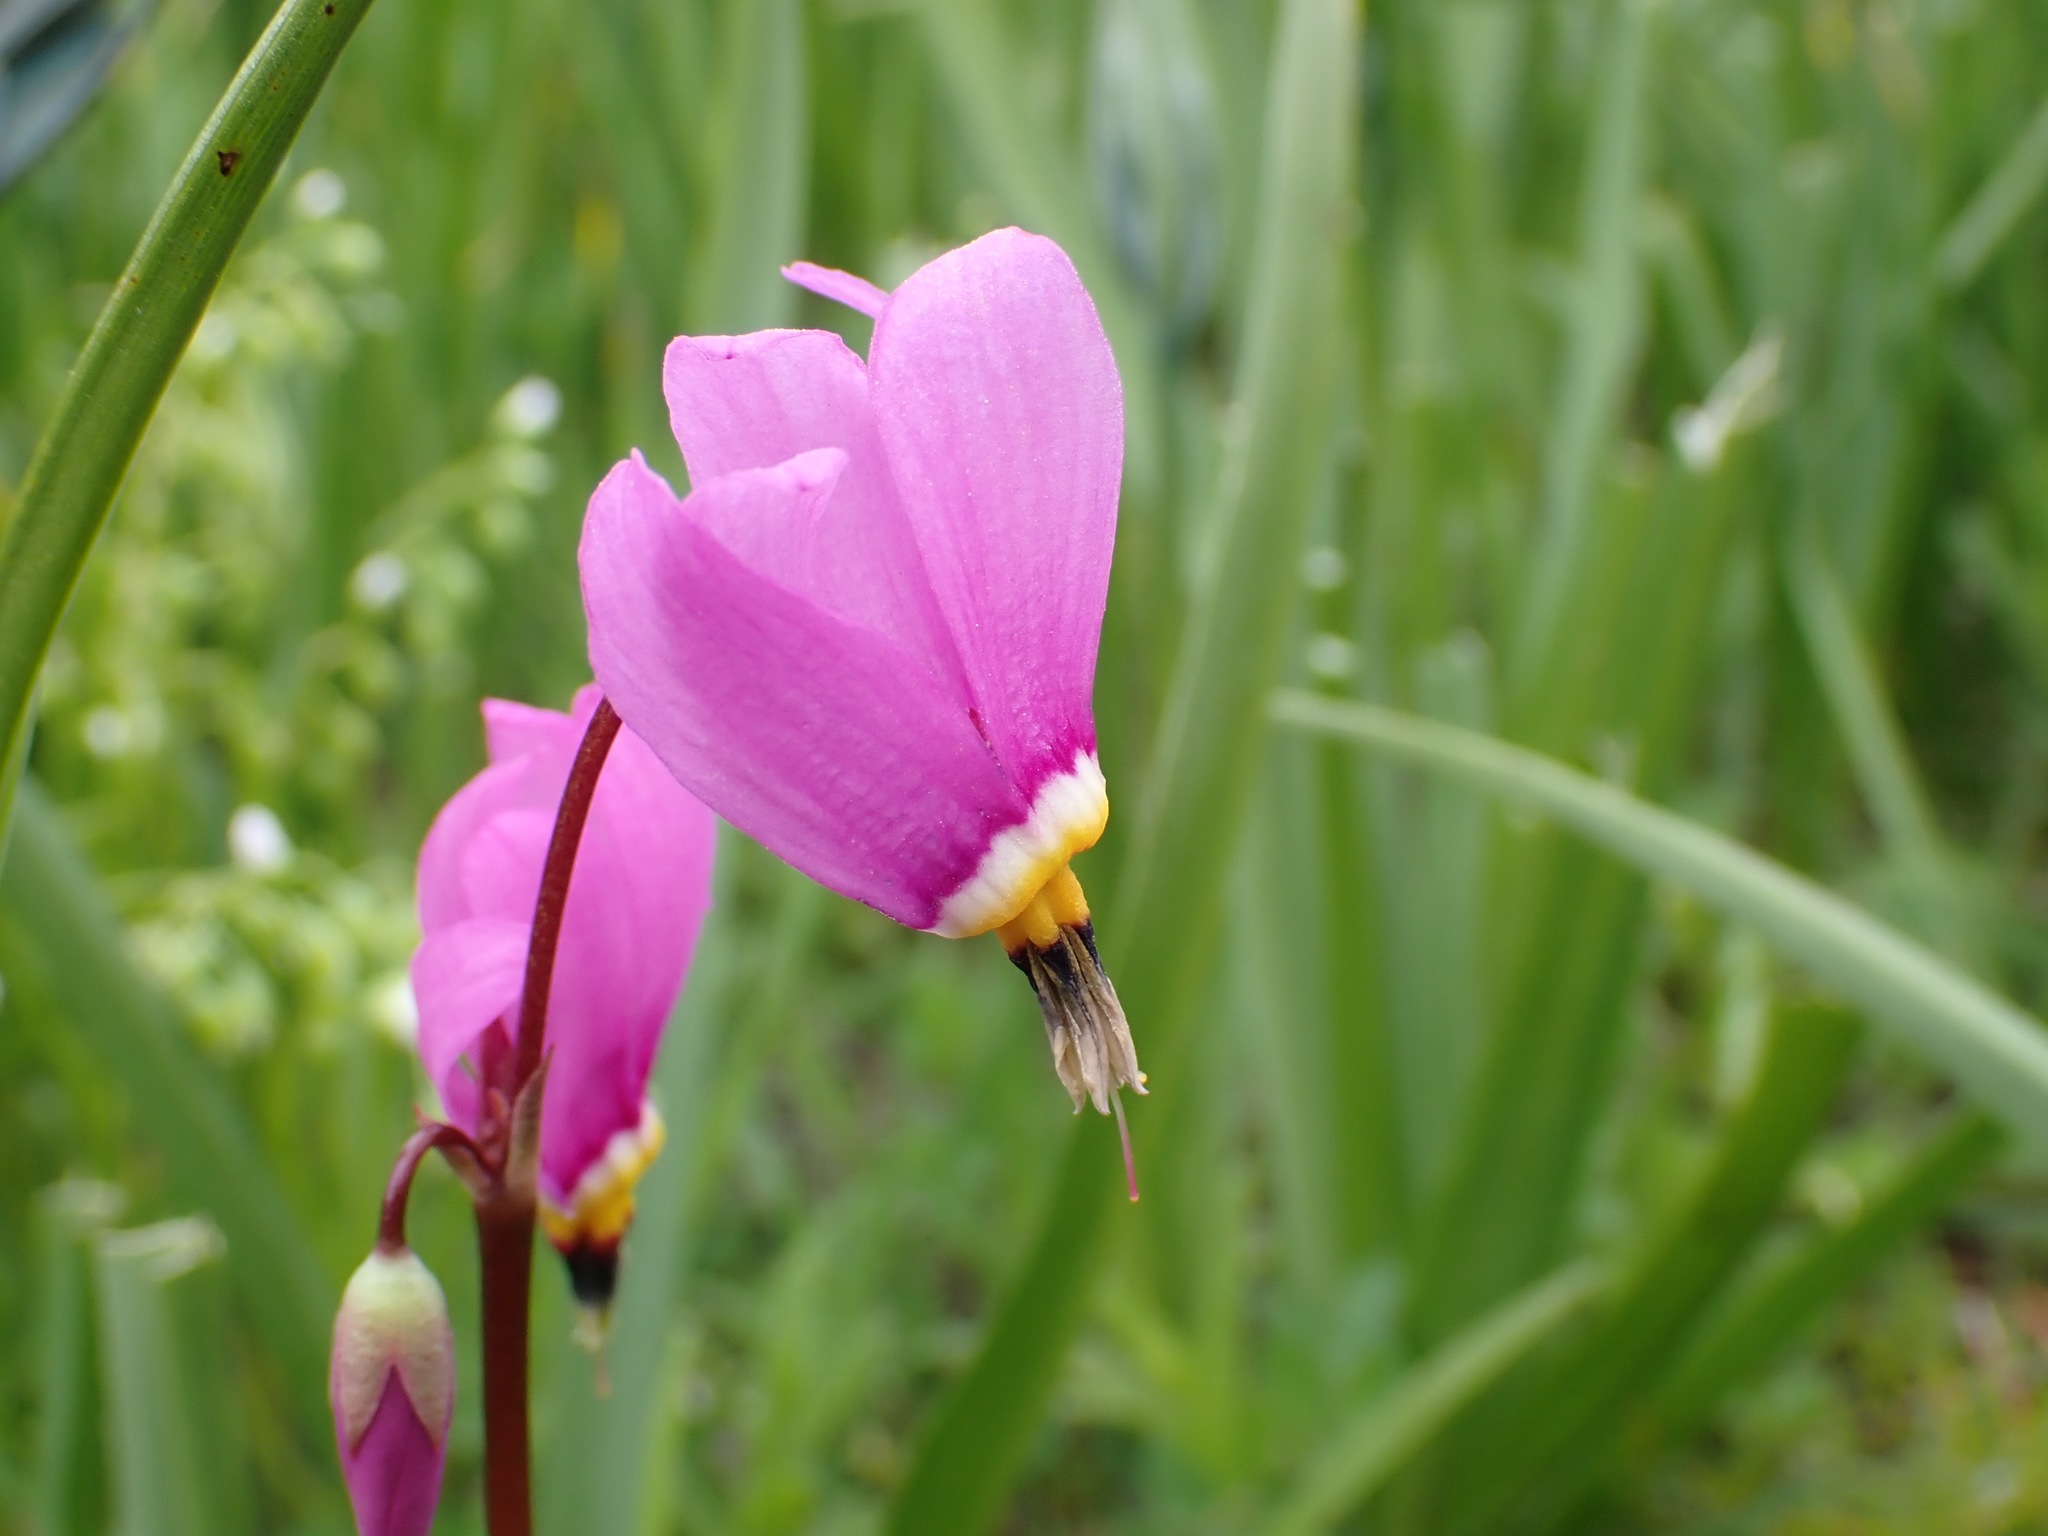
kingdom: Plantae
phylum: Tracheophyta
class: Magnoliopsida
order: Ericales
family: Primulaceae
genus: Dodecatheon
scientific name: Dodecatheon pulchellum
